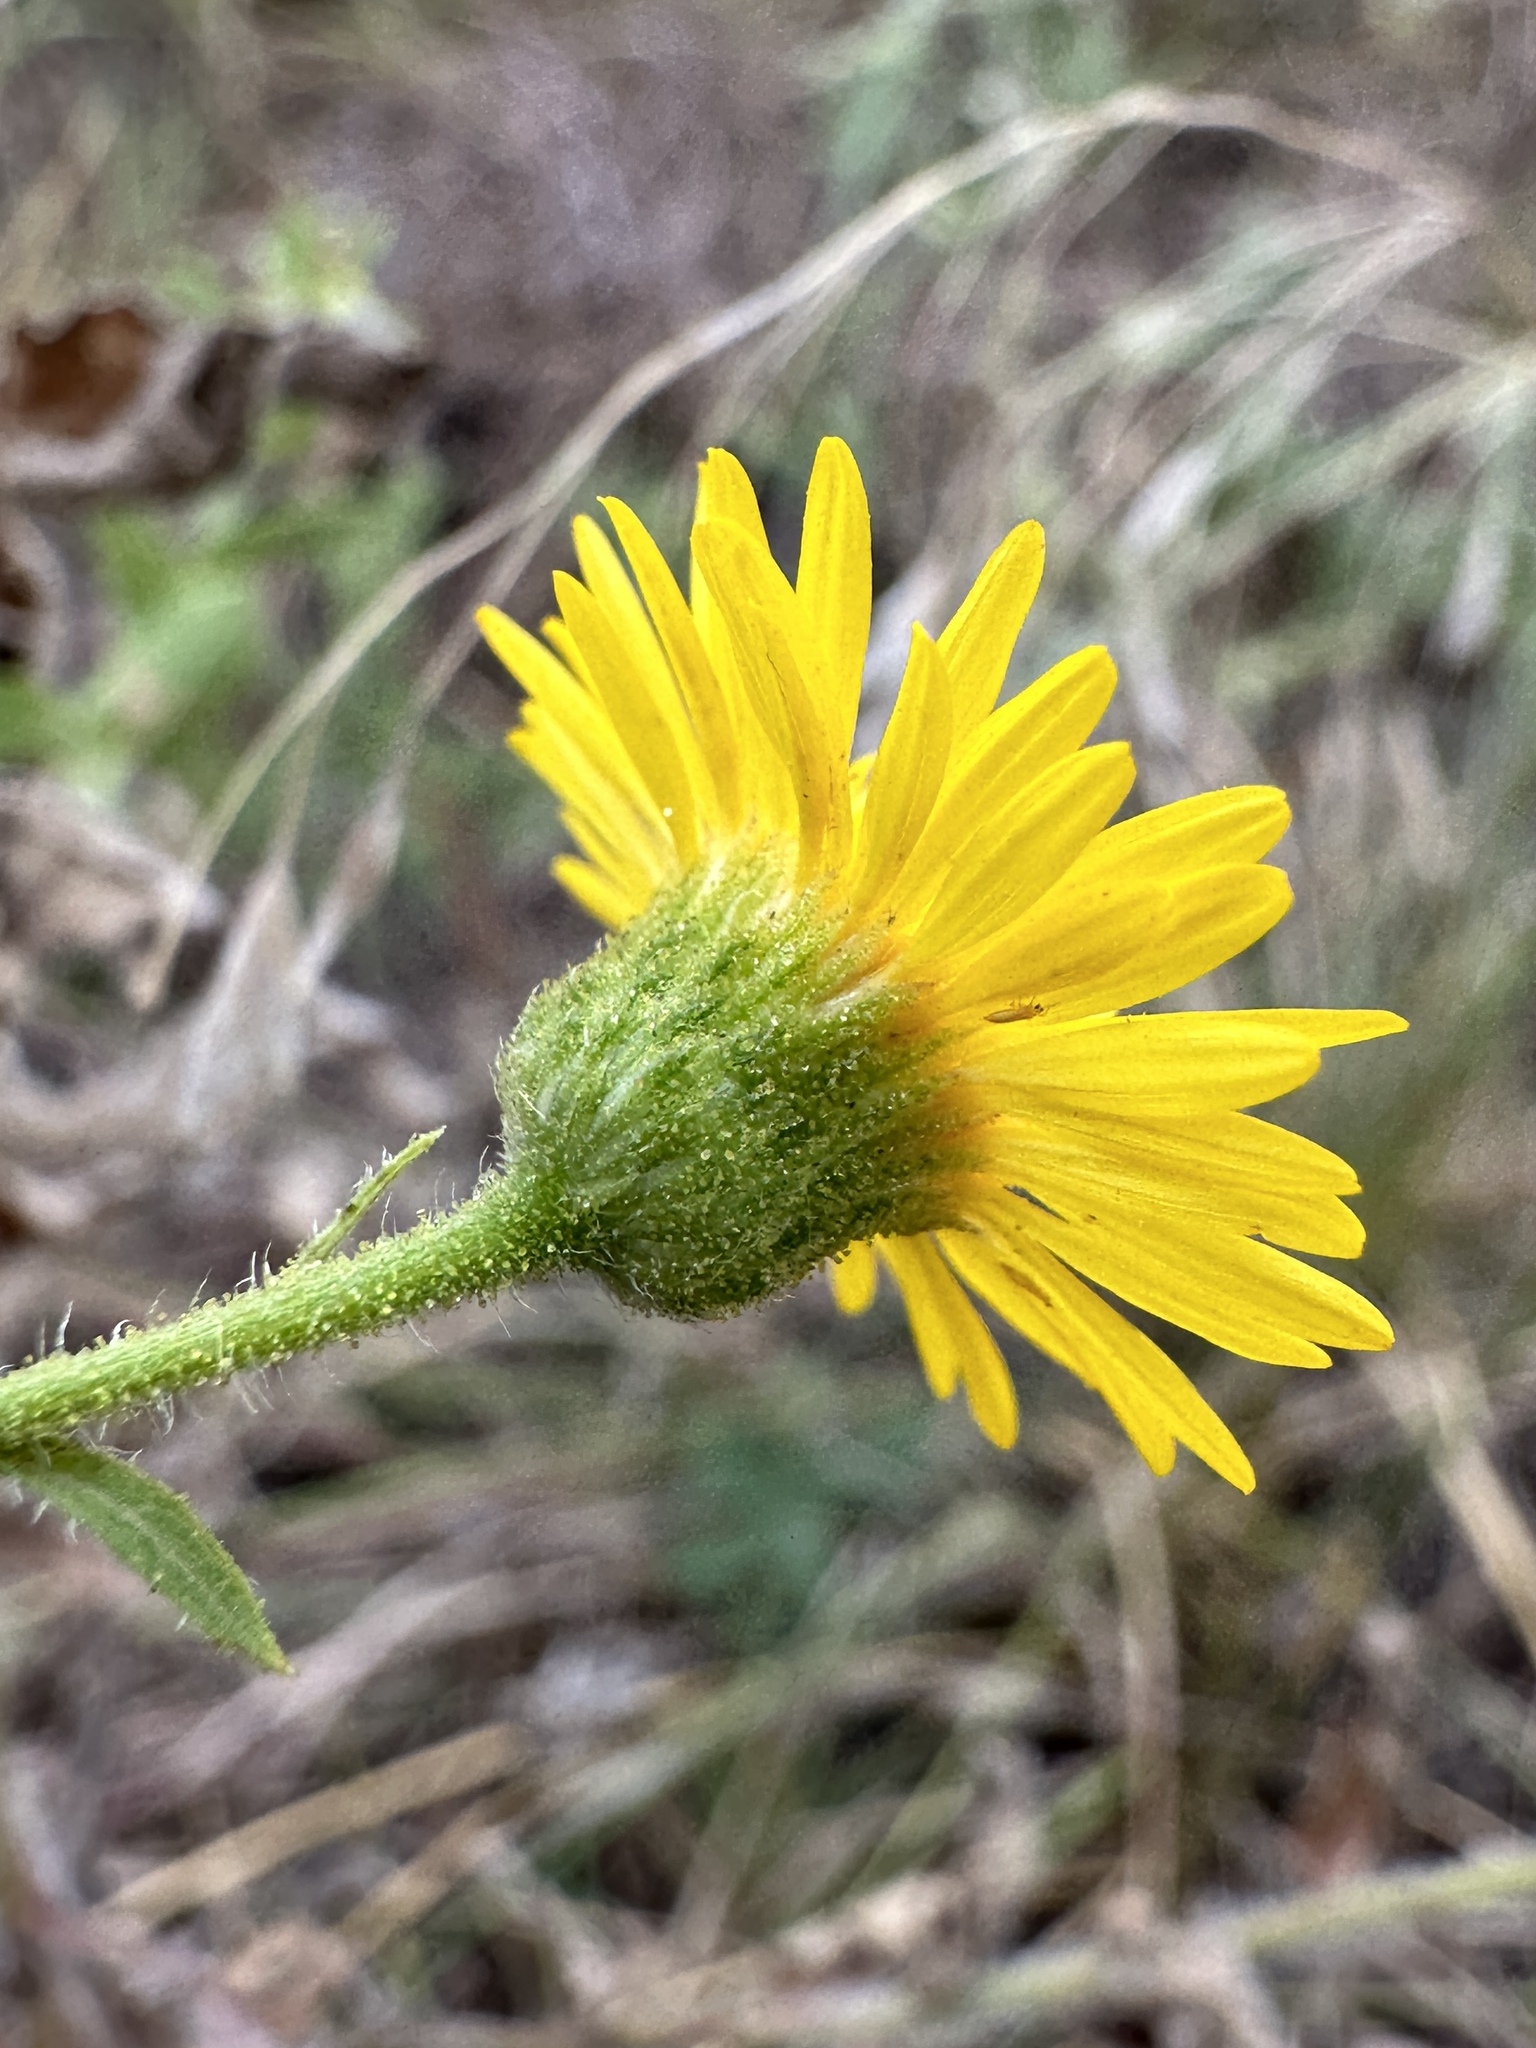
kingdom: Plantae
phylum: Tracheophyta
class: Magnoliopsida
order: Asterales
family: Asteraceae
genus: Heterotheca
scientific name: Heterotheca subaxillaris
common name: Camphorweed
